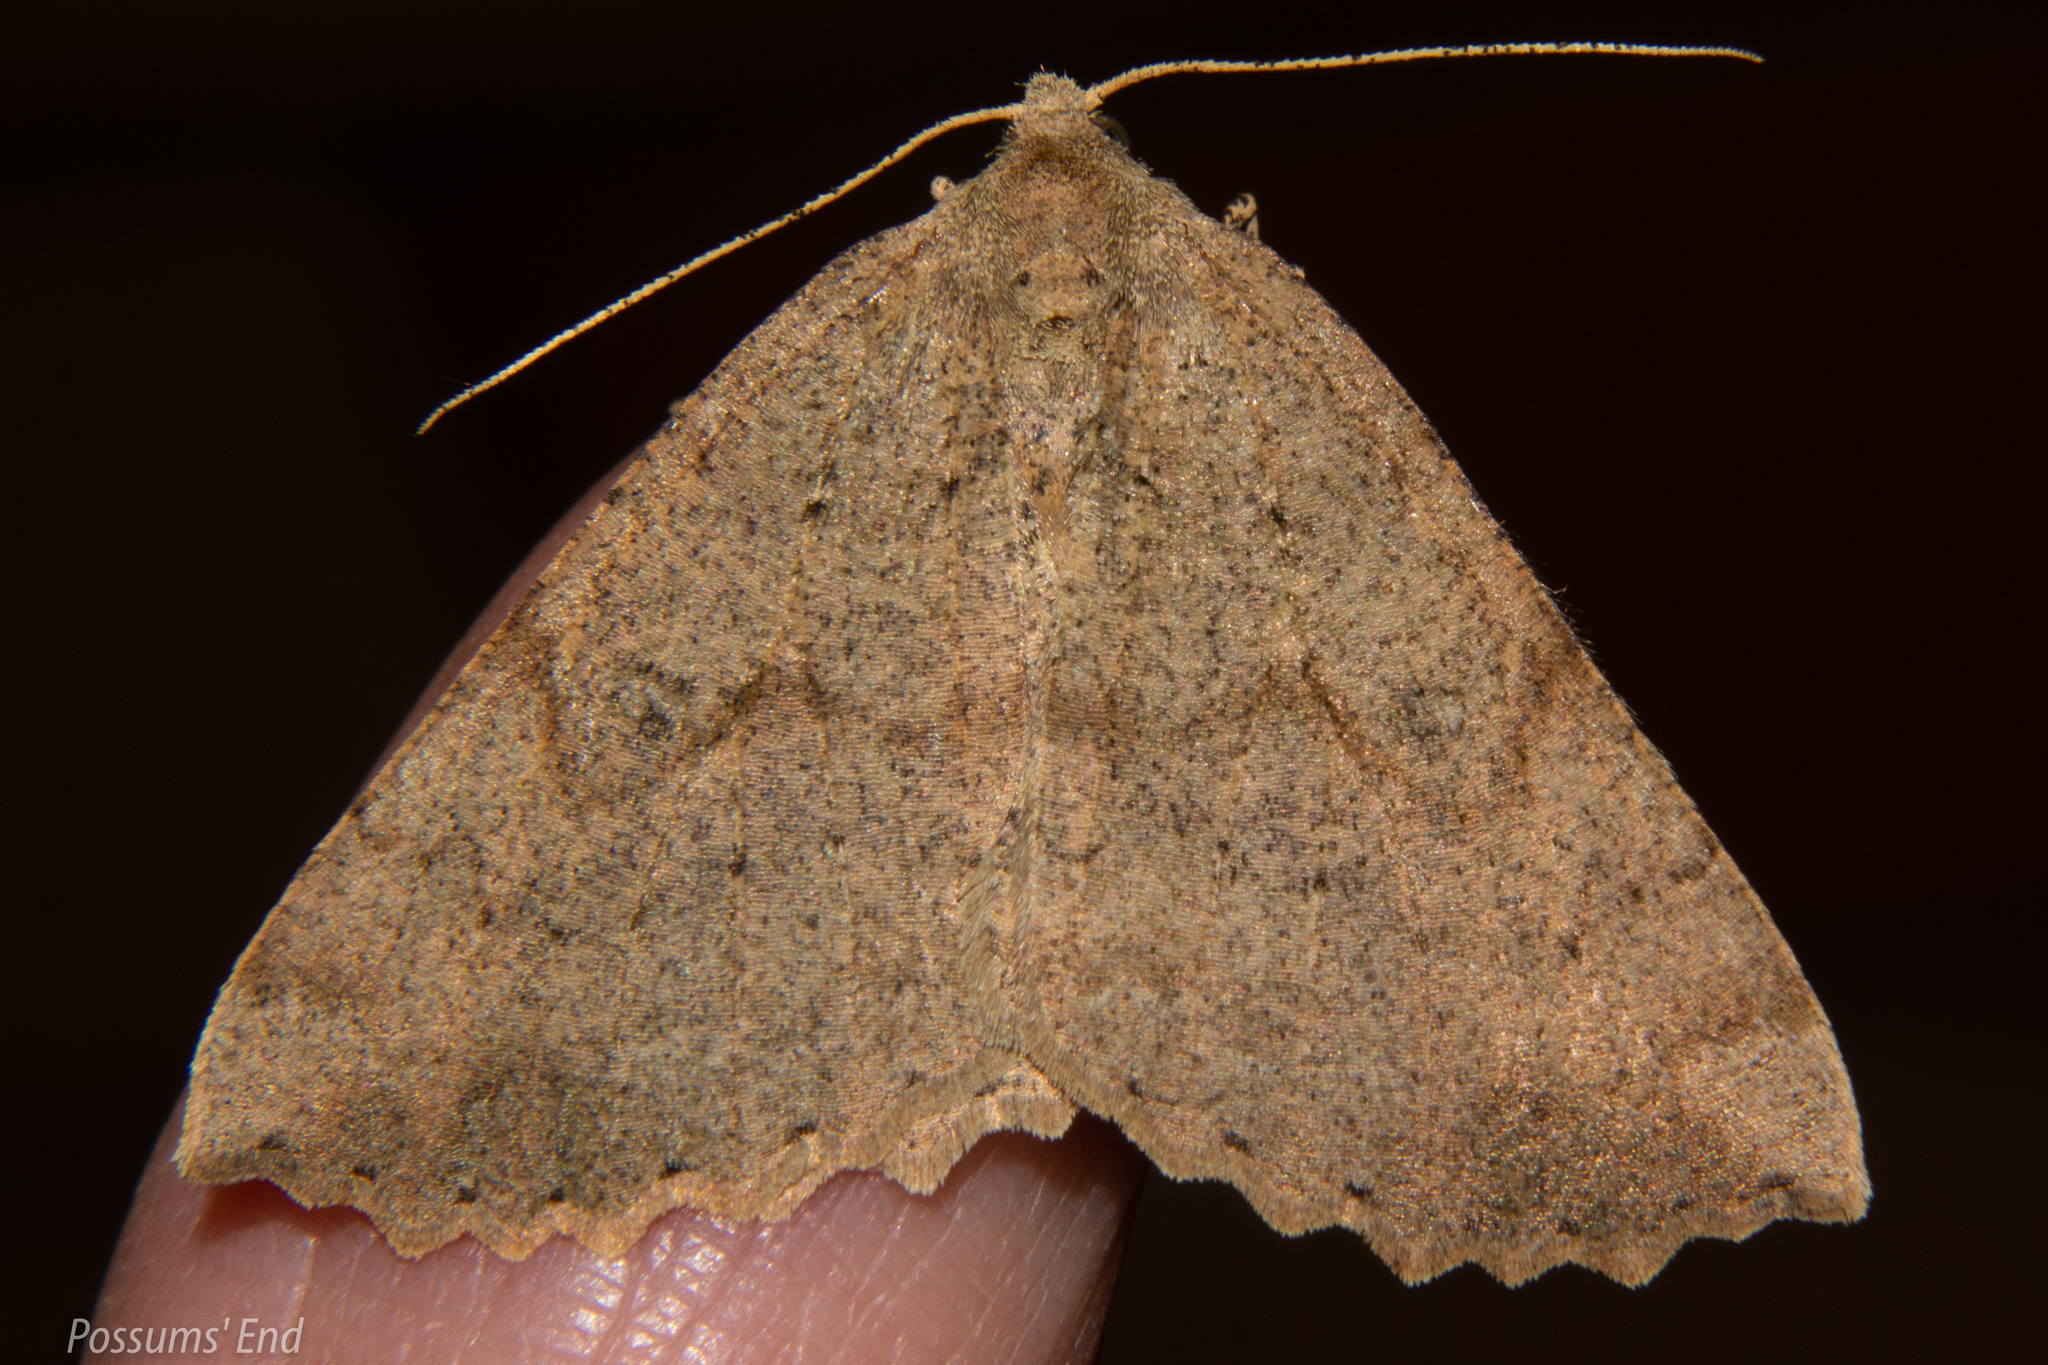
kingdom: Animalia
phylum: Arthropoda
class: Insecta
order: Lepidoptera
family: Geometridae
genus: Cleora
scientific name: Cleora scriptaria
